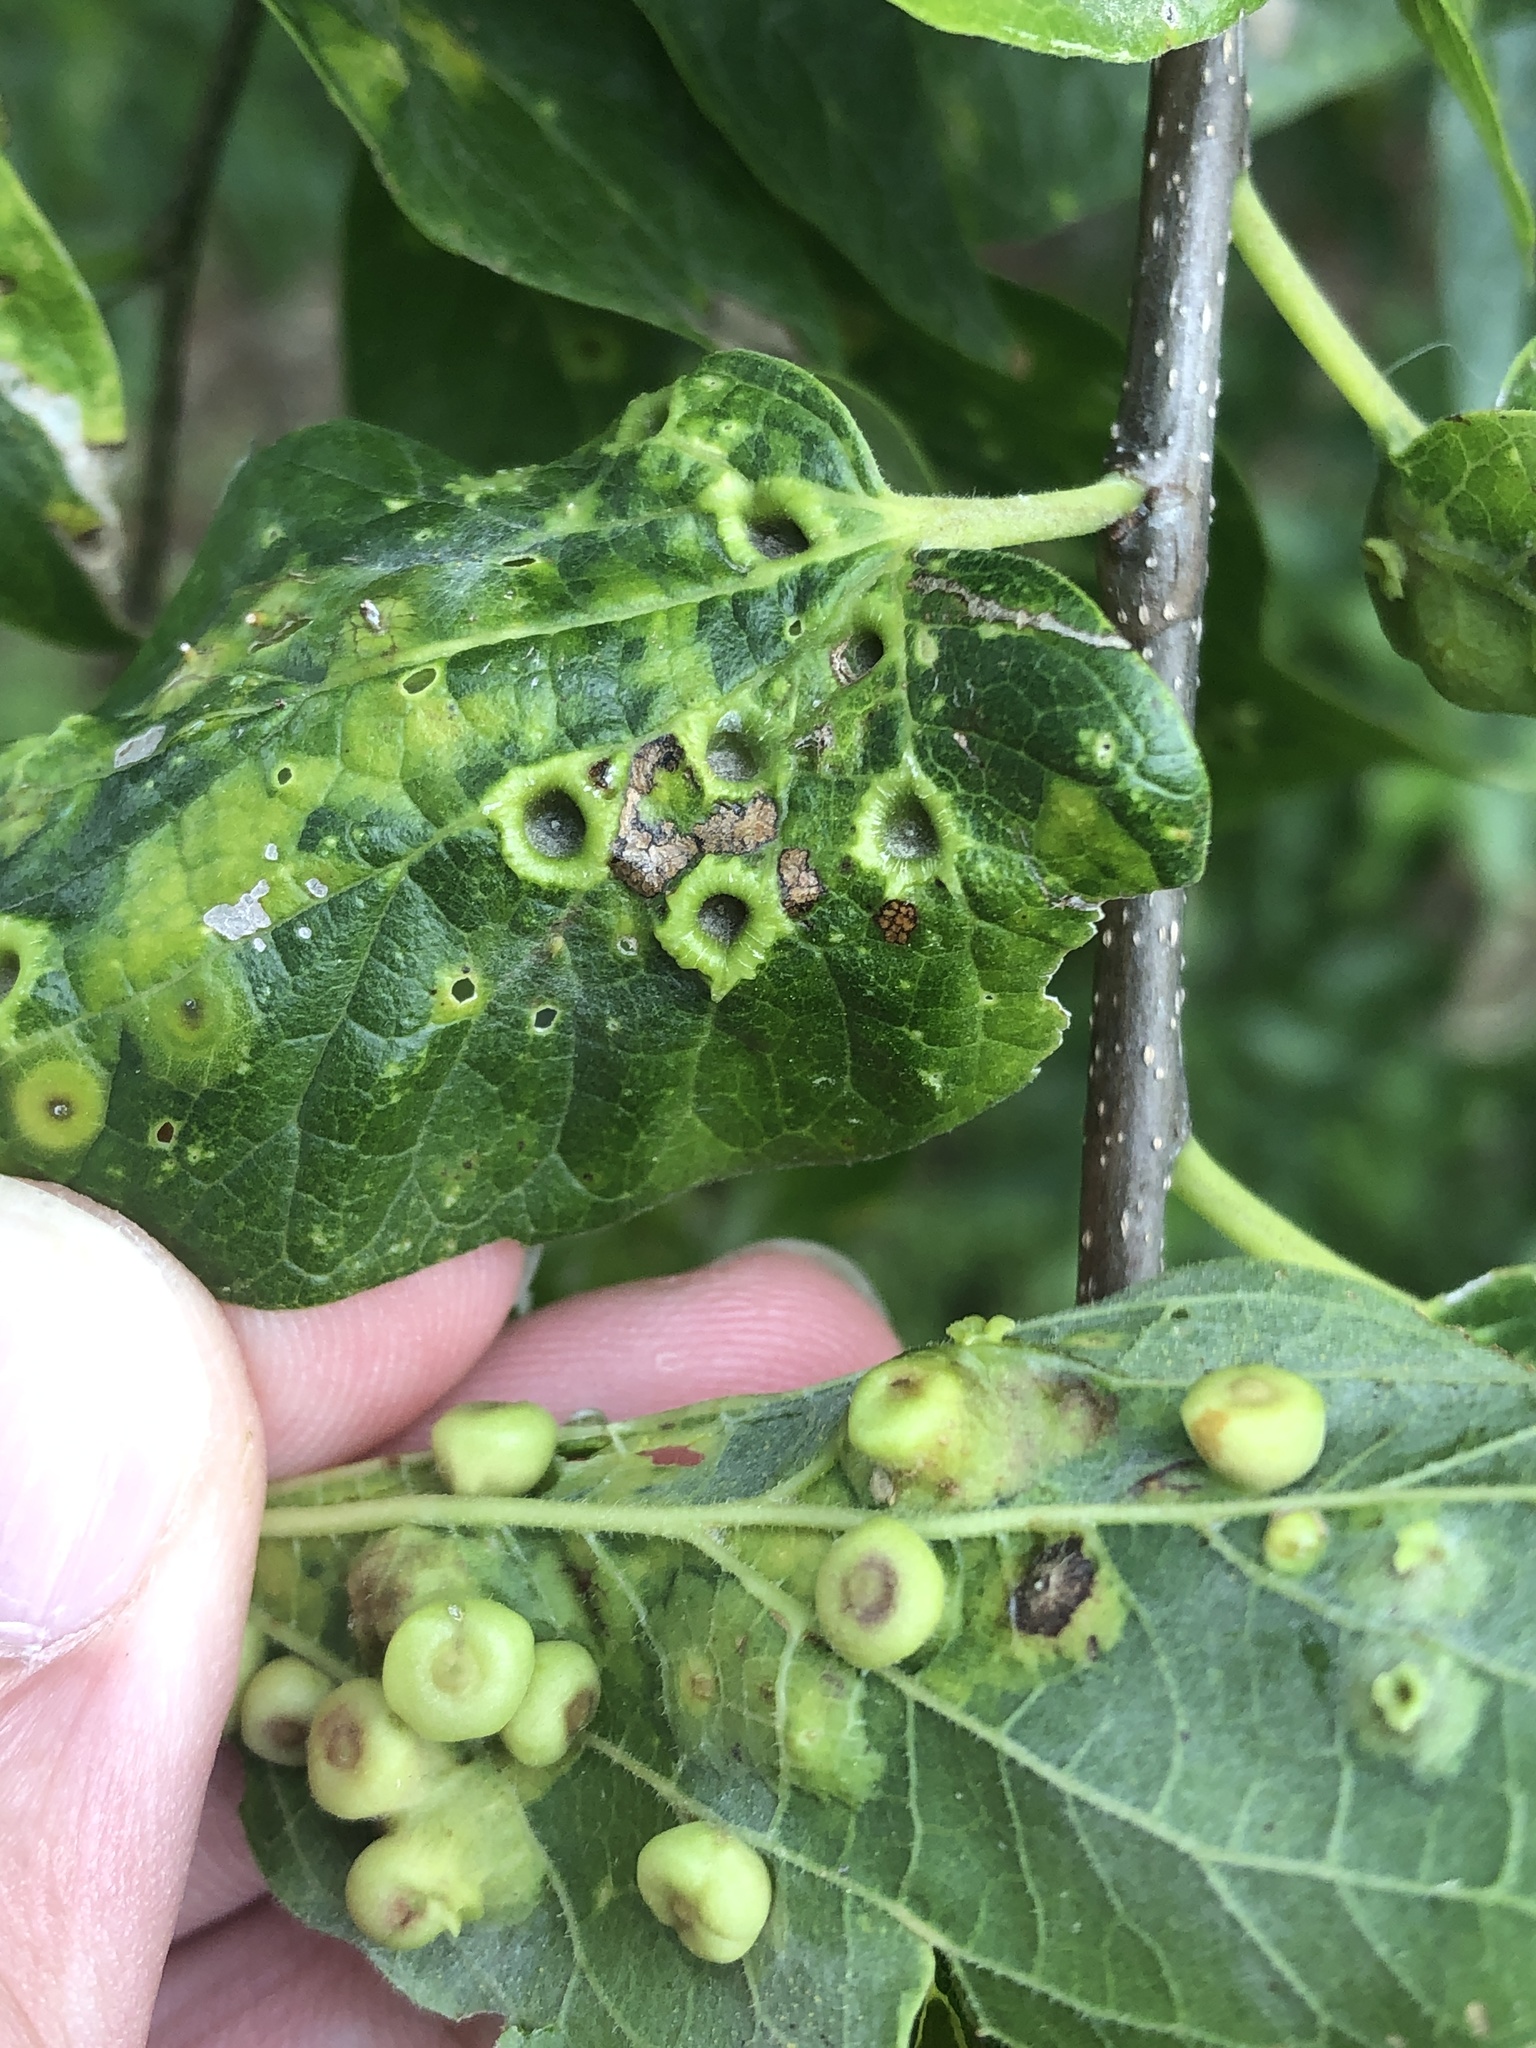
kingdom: Animalia
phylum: Arthropoda
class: Insecta
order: Hemiptera
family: Aphalaridae
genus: Pachypsylla
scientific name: Pachypsylla celtidismamma
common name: Hackberry nipplegall psyllid
